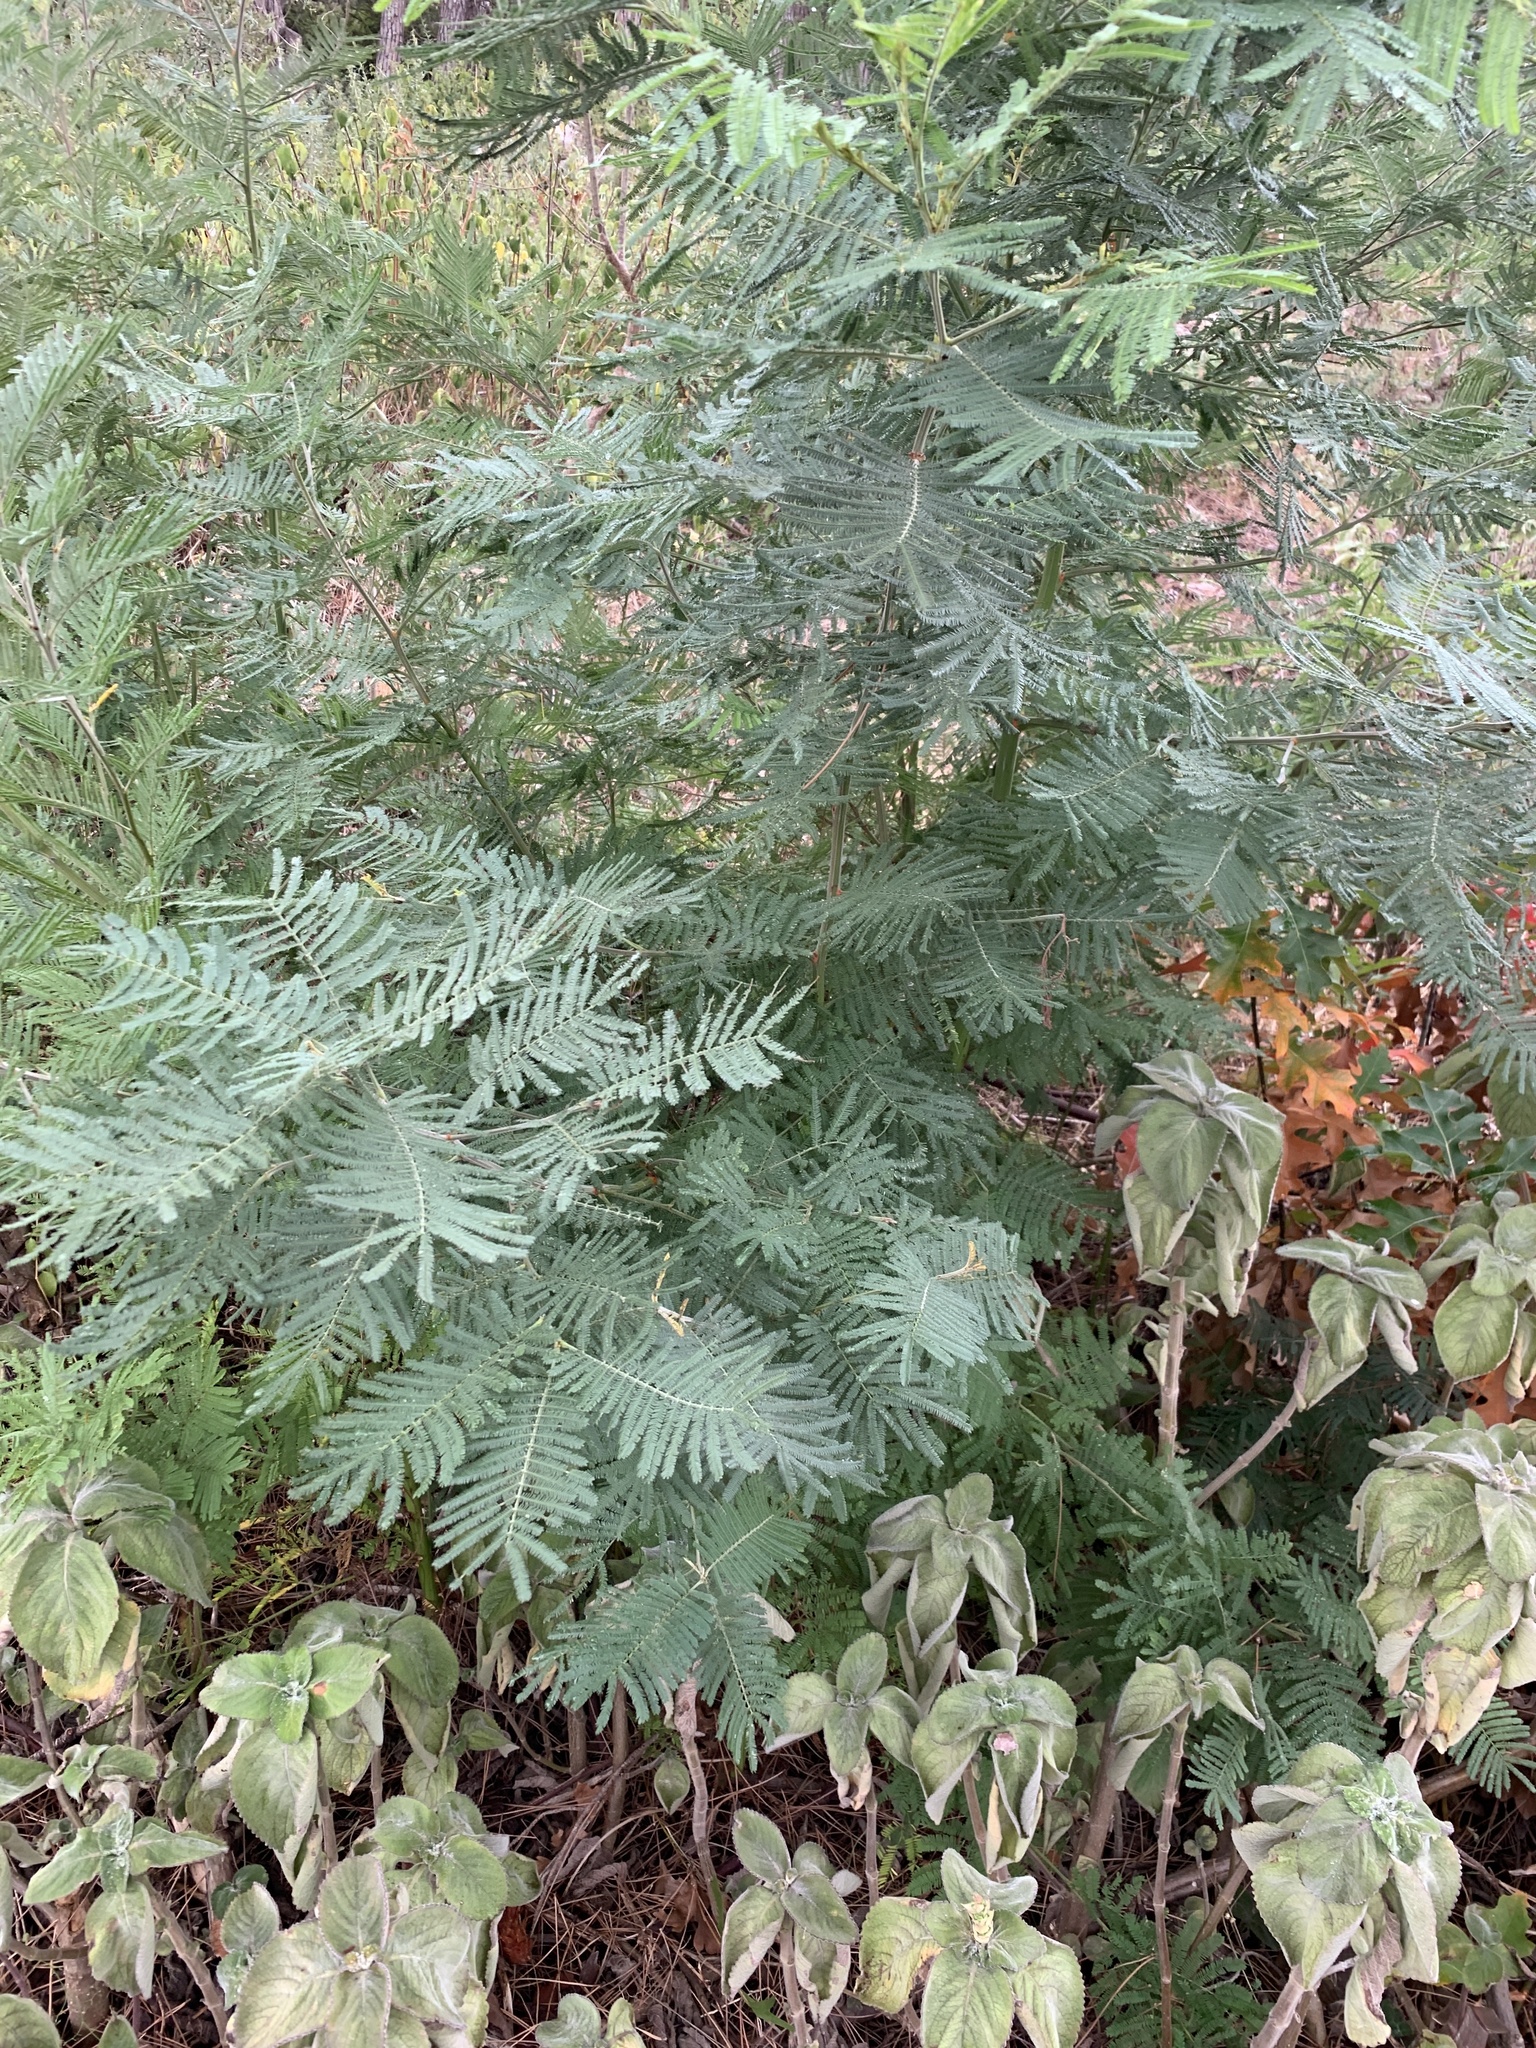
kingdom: Plantae
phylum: Tracheophyta
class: Magnoliopsida
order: Fabales
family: Fabaceae
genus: Acacia
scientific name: Acacia mearnsii
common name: Black wattle
